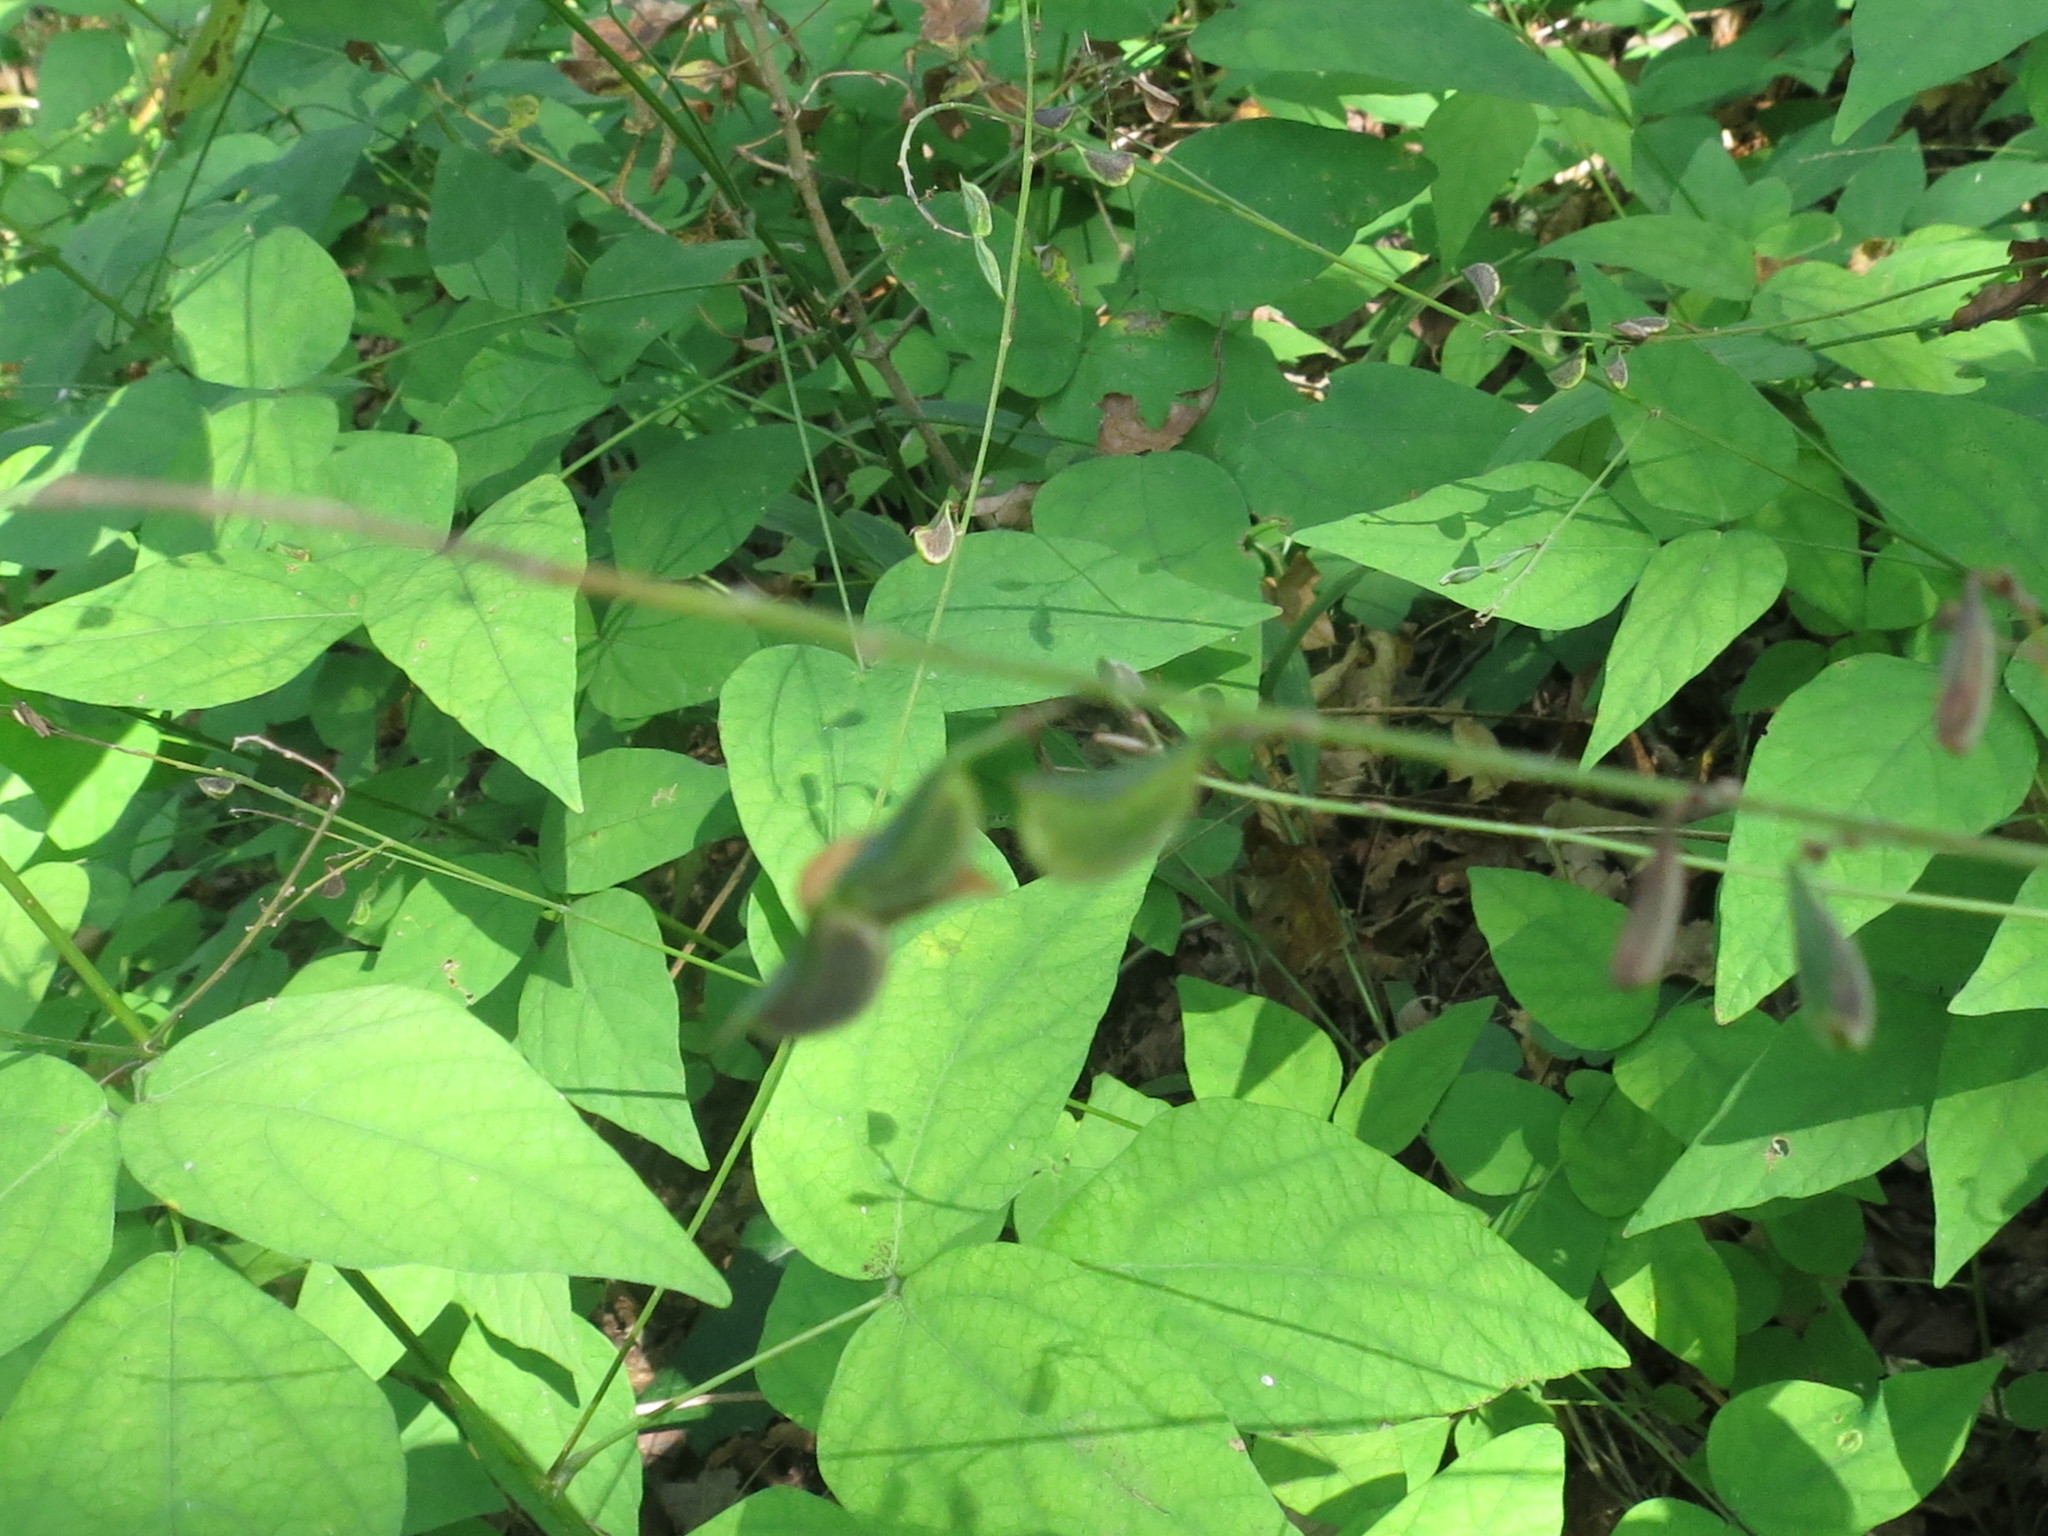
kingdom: Plantae
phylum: Tracheophyta
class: Magnoliopsida
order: Fabales
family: Fabaceae
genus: Hylodesmum
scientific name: Hylodesmum podocarpum
